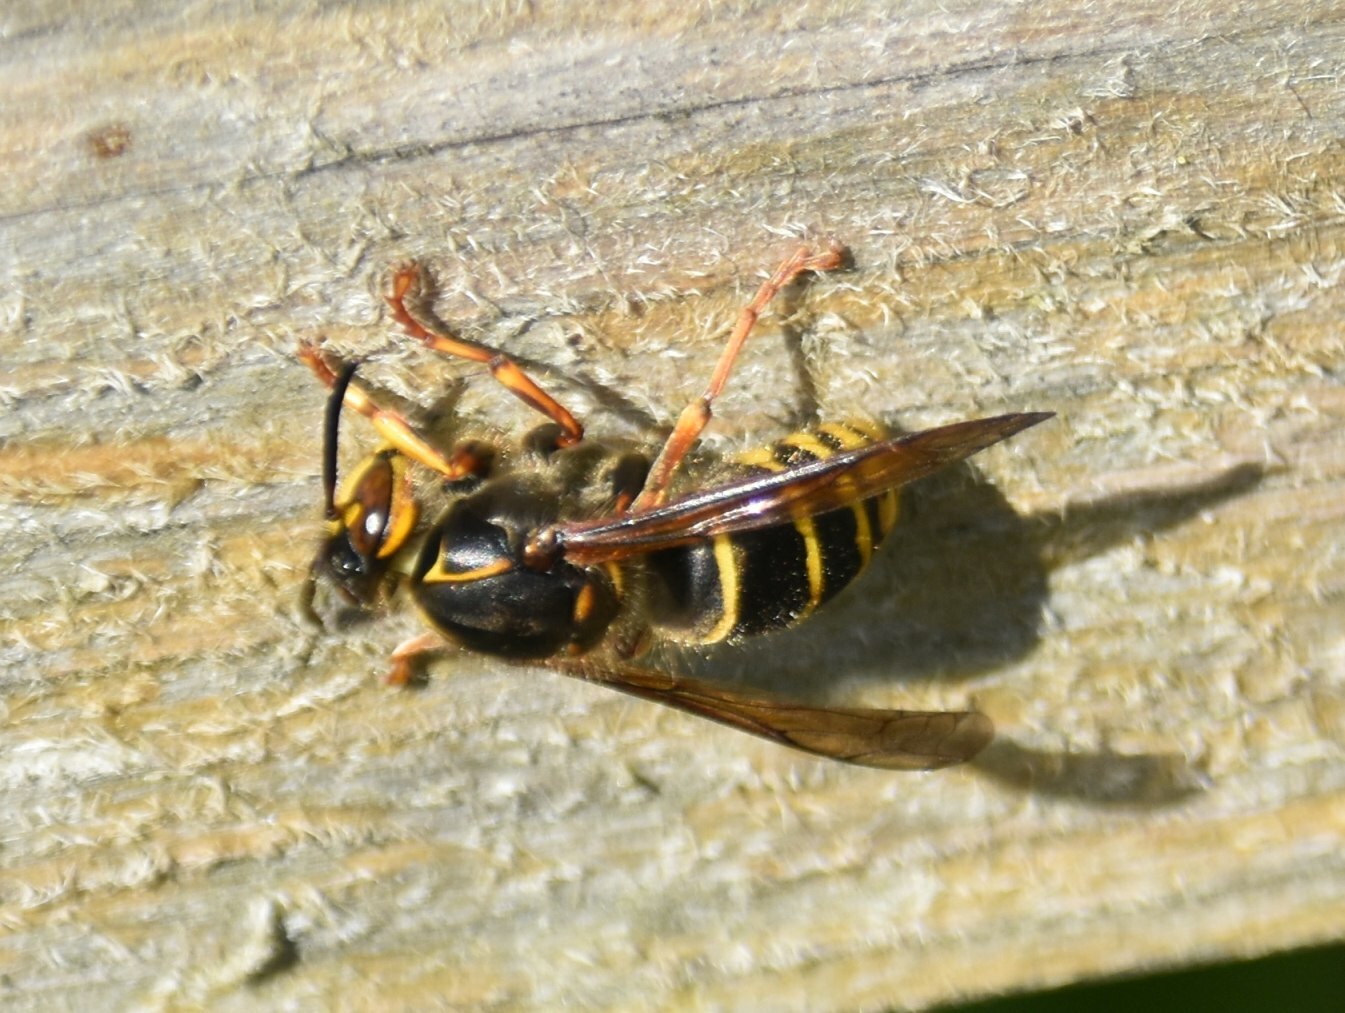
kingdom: Animalia
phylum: Arthropoda
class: Insecta
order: Hymenoptera
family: Vespidae
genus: Dolichovespula
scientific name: Dolichovespula media
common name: Median wasp
